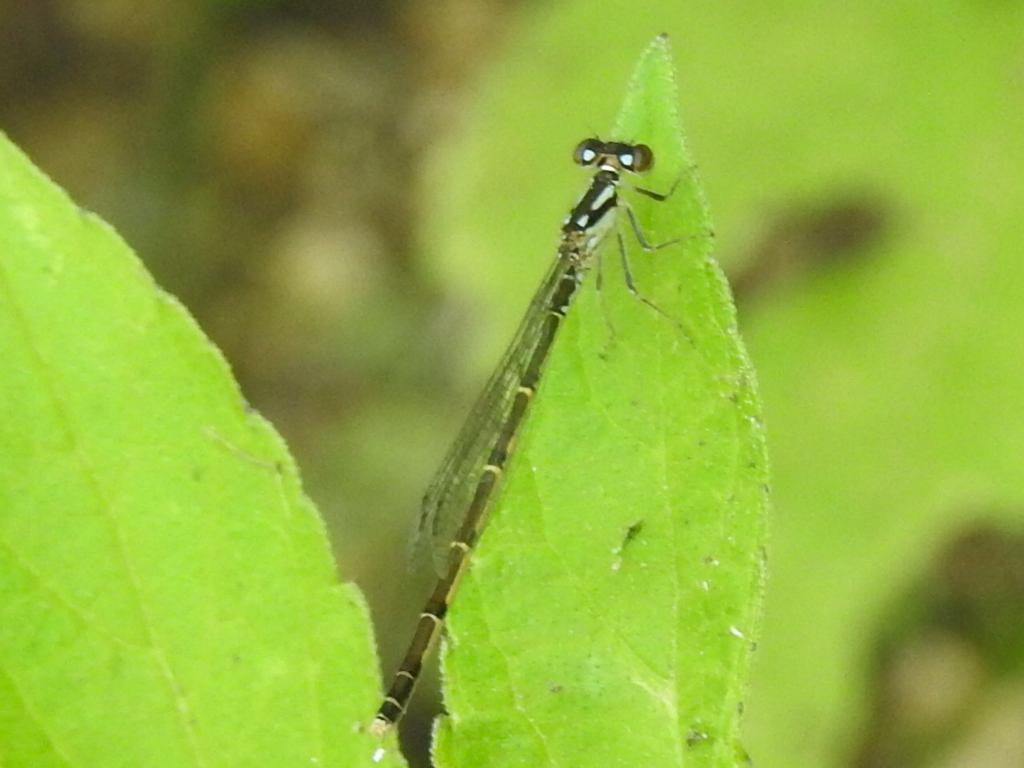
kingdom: Animalia
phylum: Arthropoda
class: Insecta
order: Odonata
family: Coenagrionidae
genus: Ischnura
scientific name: Ischnura posita
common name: Fragile forktail
